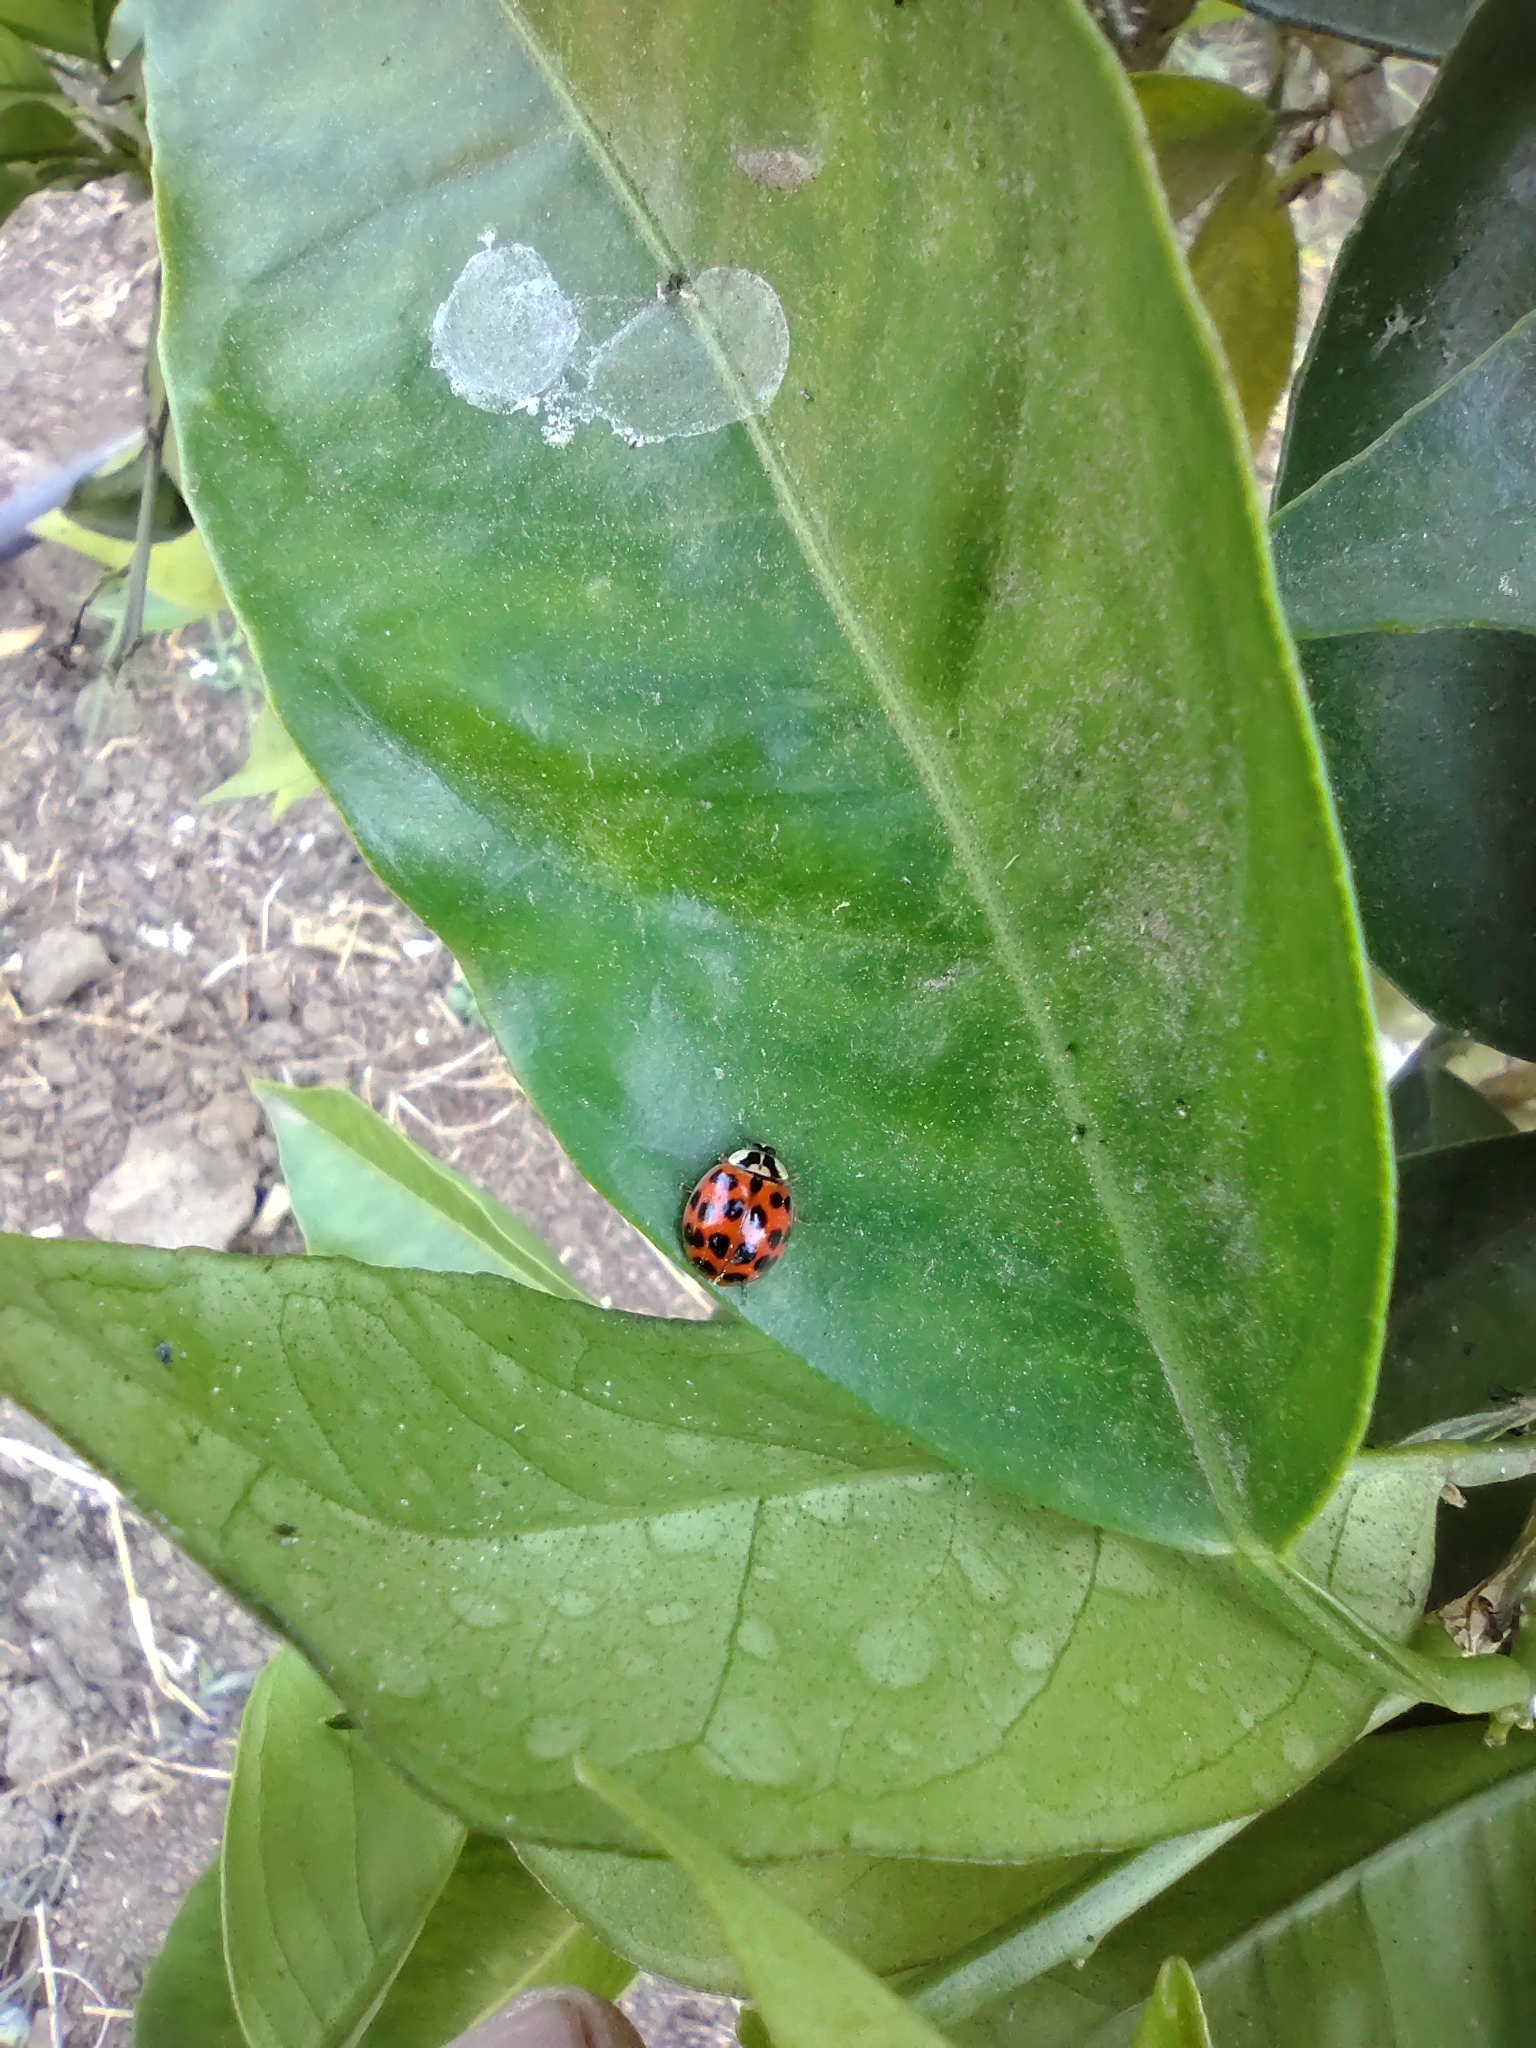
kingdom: Animalia
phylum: Arthropoda
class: Insecta
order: Coleoptera
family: Coccinellidae
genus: Harmonia
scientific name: Harmonia axyridis
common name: Harlequin ladybird
